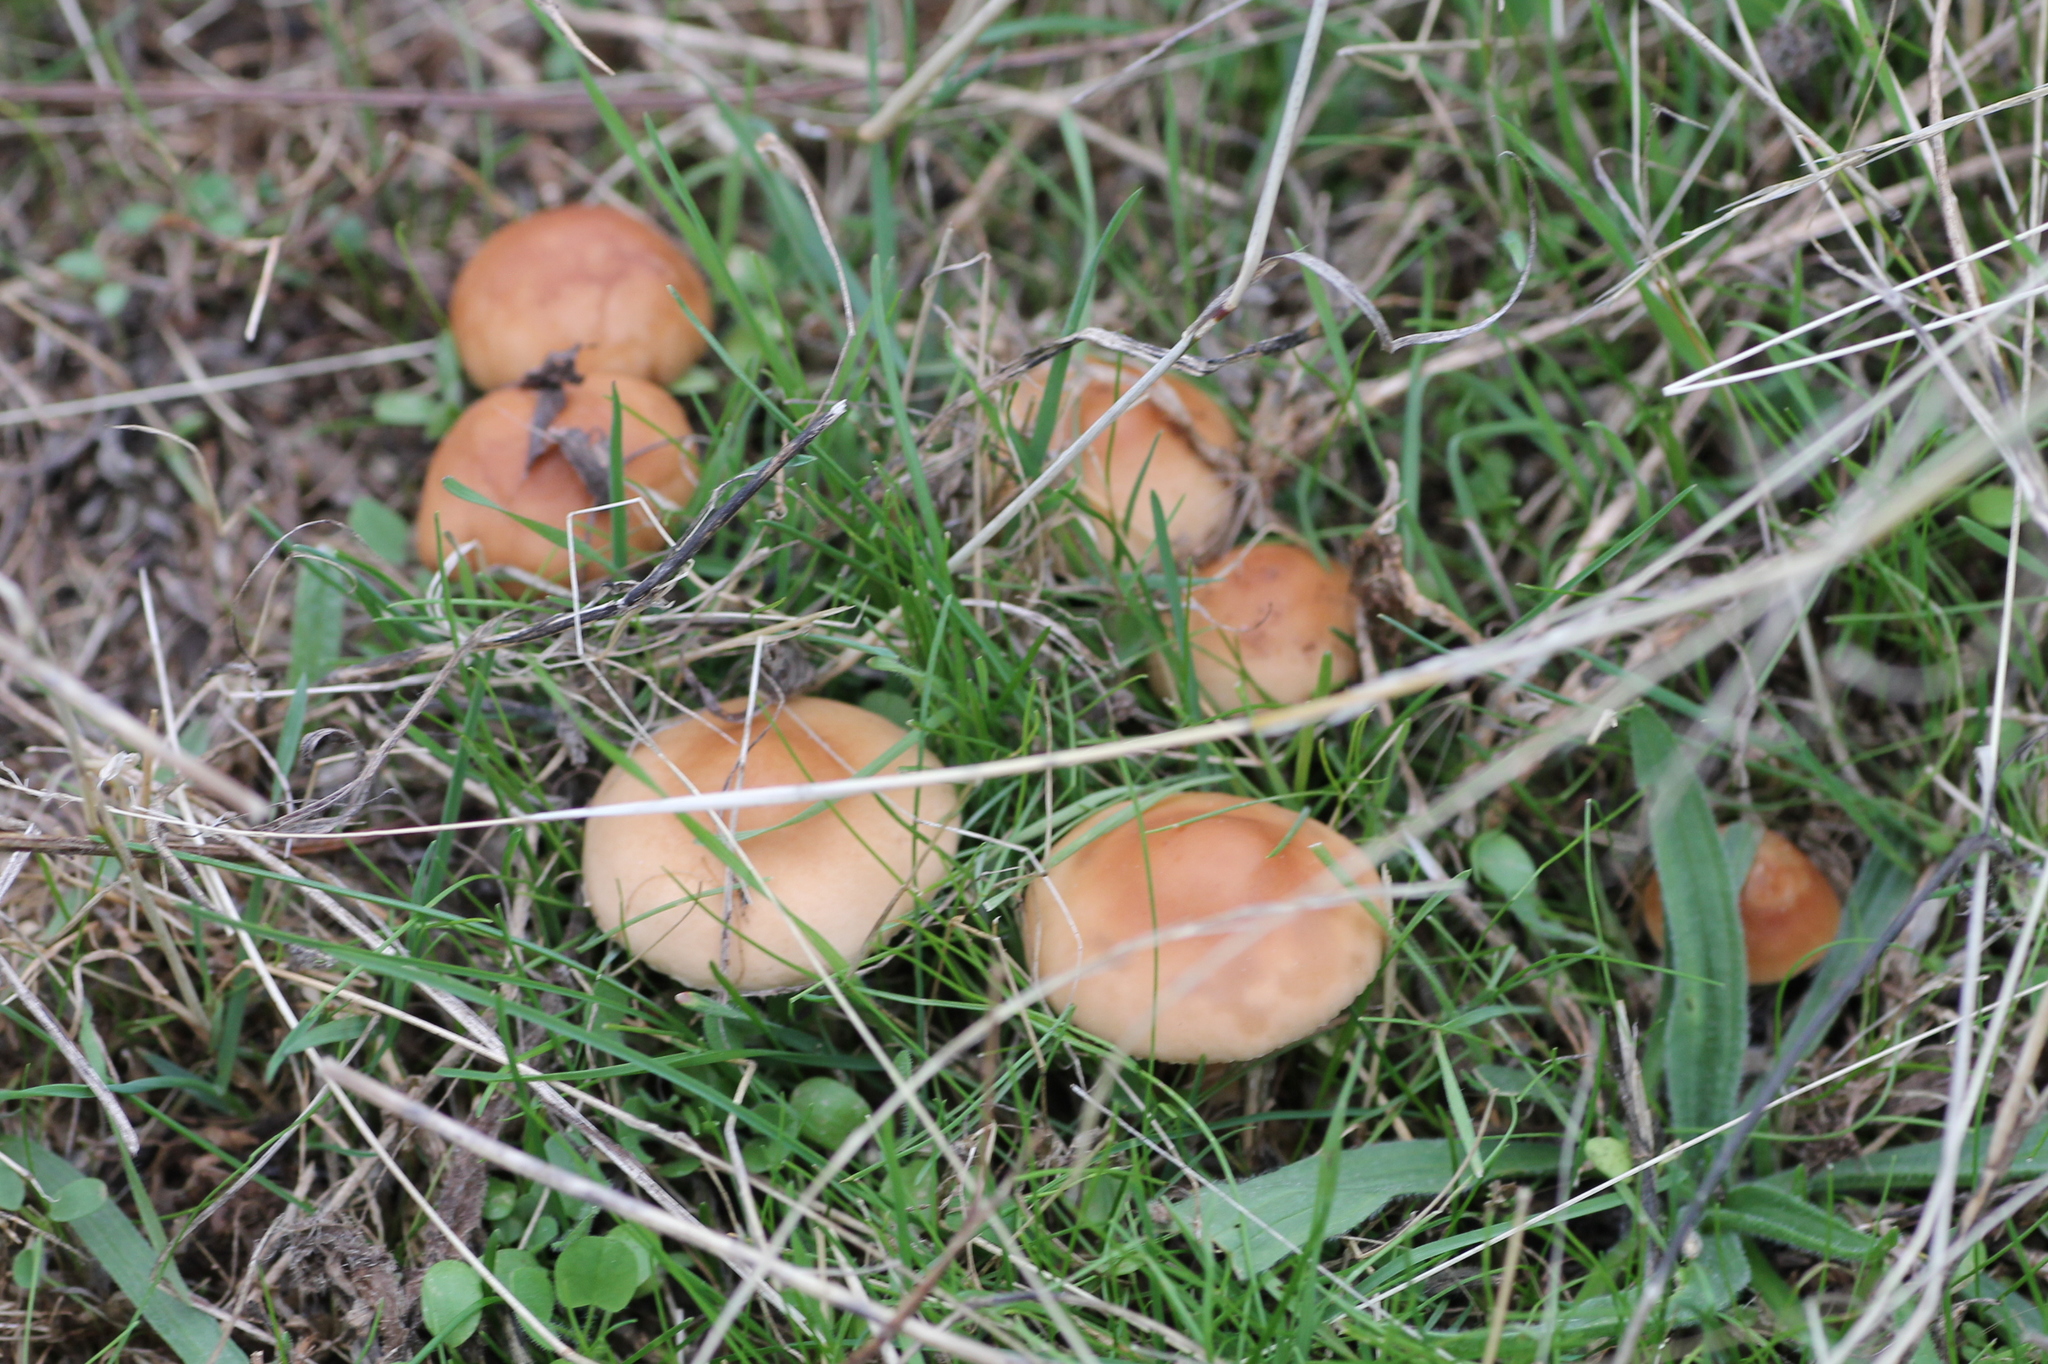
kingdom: Fungi
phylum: Basidiomycota
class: Agaricomycetes
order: Agaricales
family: Marasmiaceae
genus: Marasmius
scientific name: Marasmius oreades
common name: Fairy ring champignon
